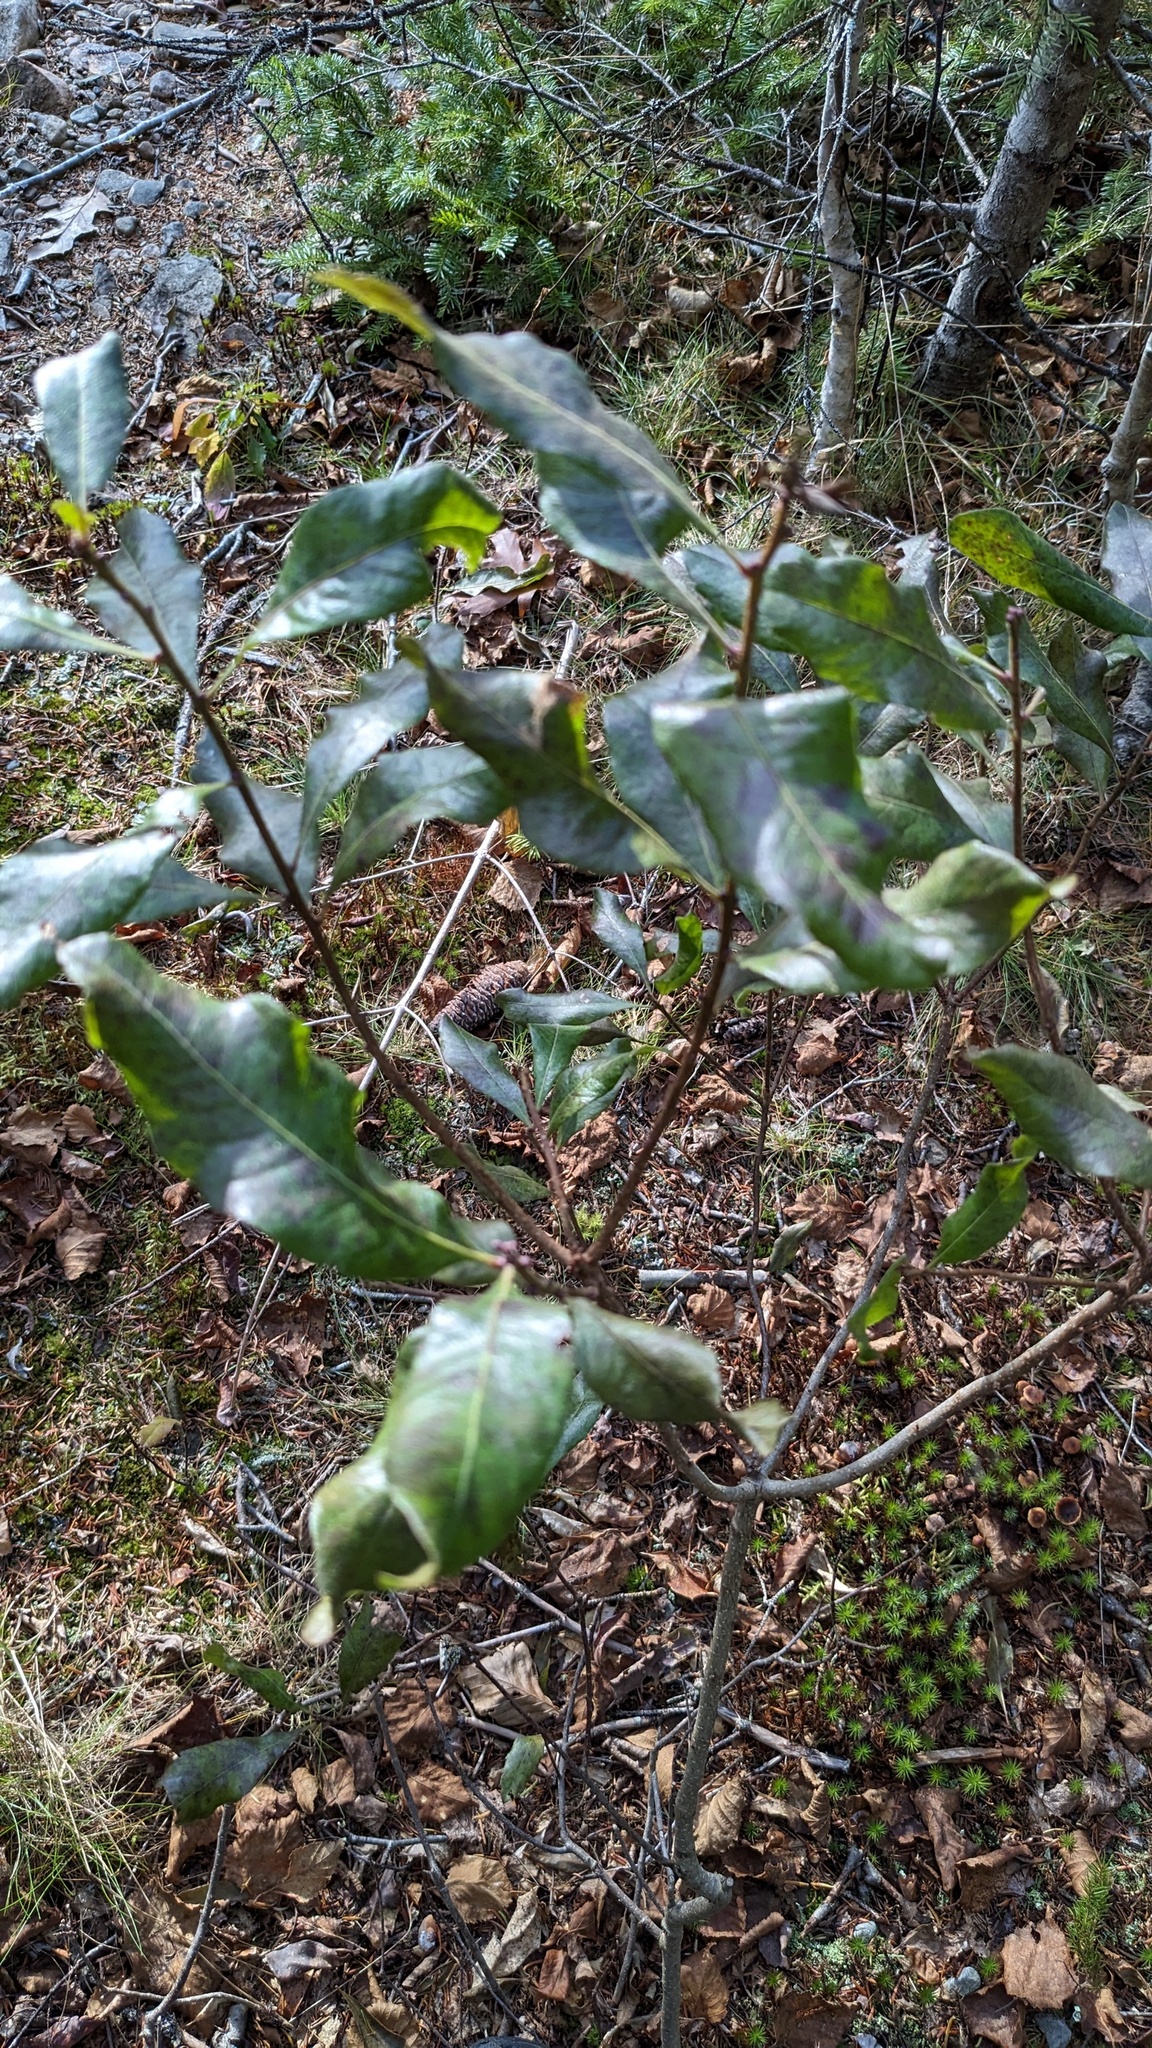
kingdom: Plantae
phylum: Tracheophyta
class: Magnoliopsida
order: Fagales
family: Myricaceae
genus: Morella
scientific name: Morella pensylvanica
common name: Northern bayberry
